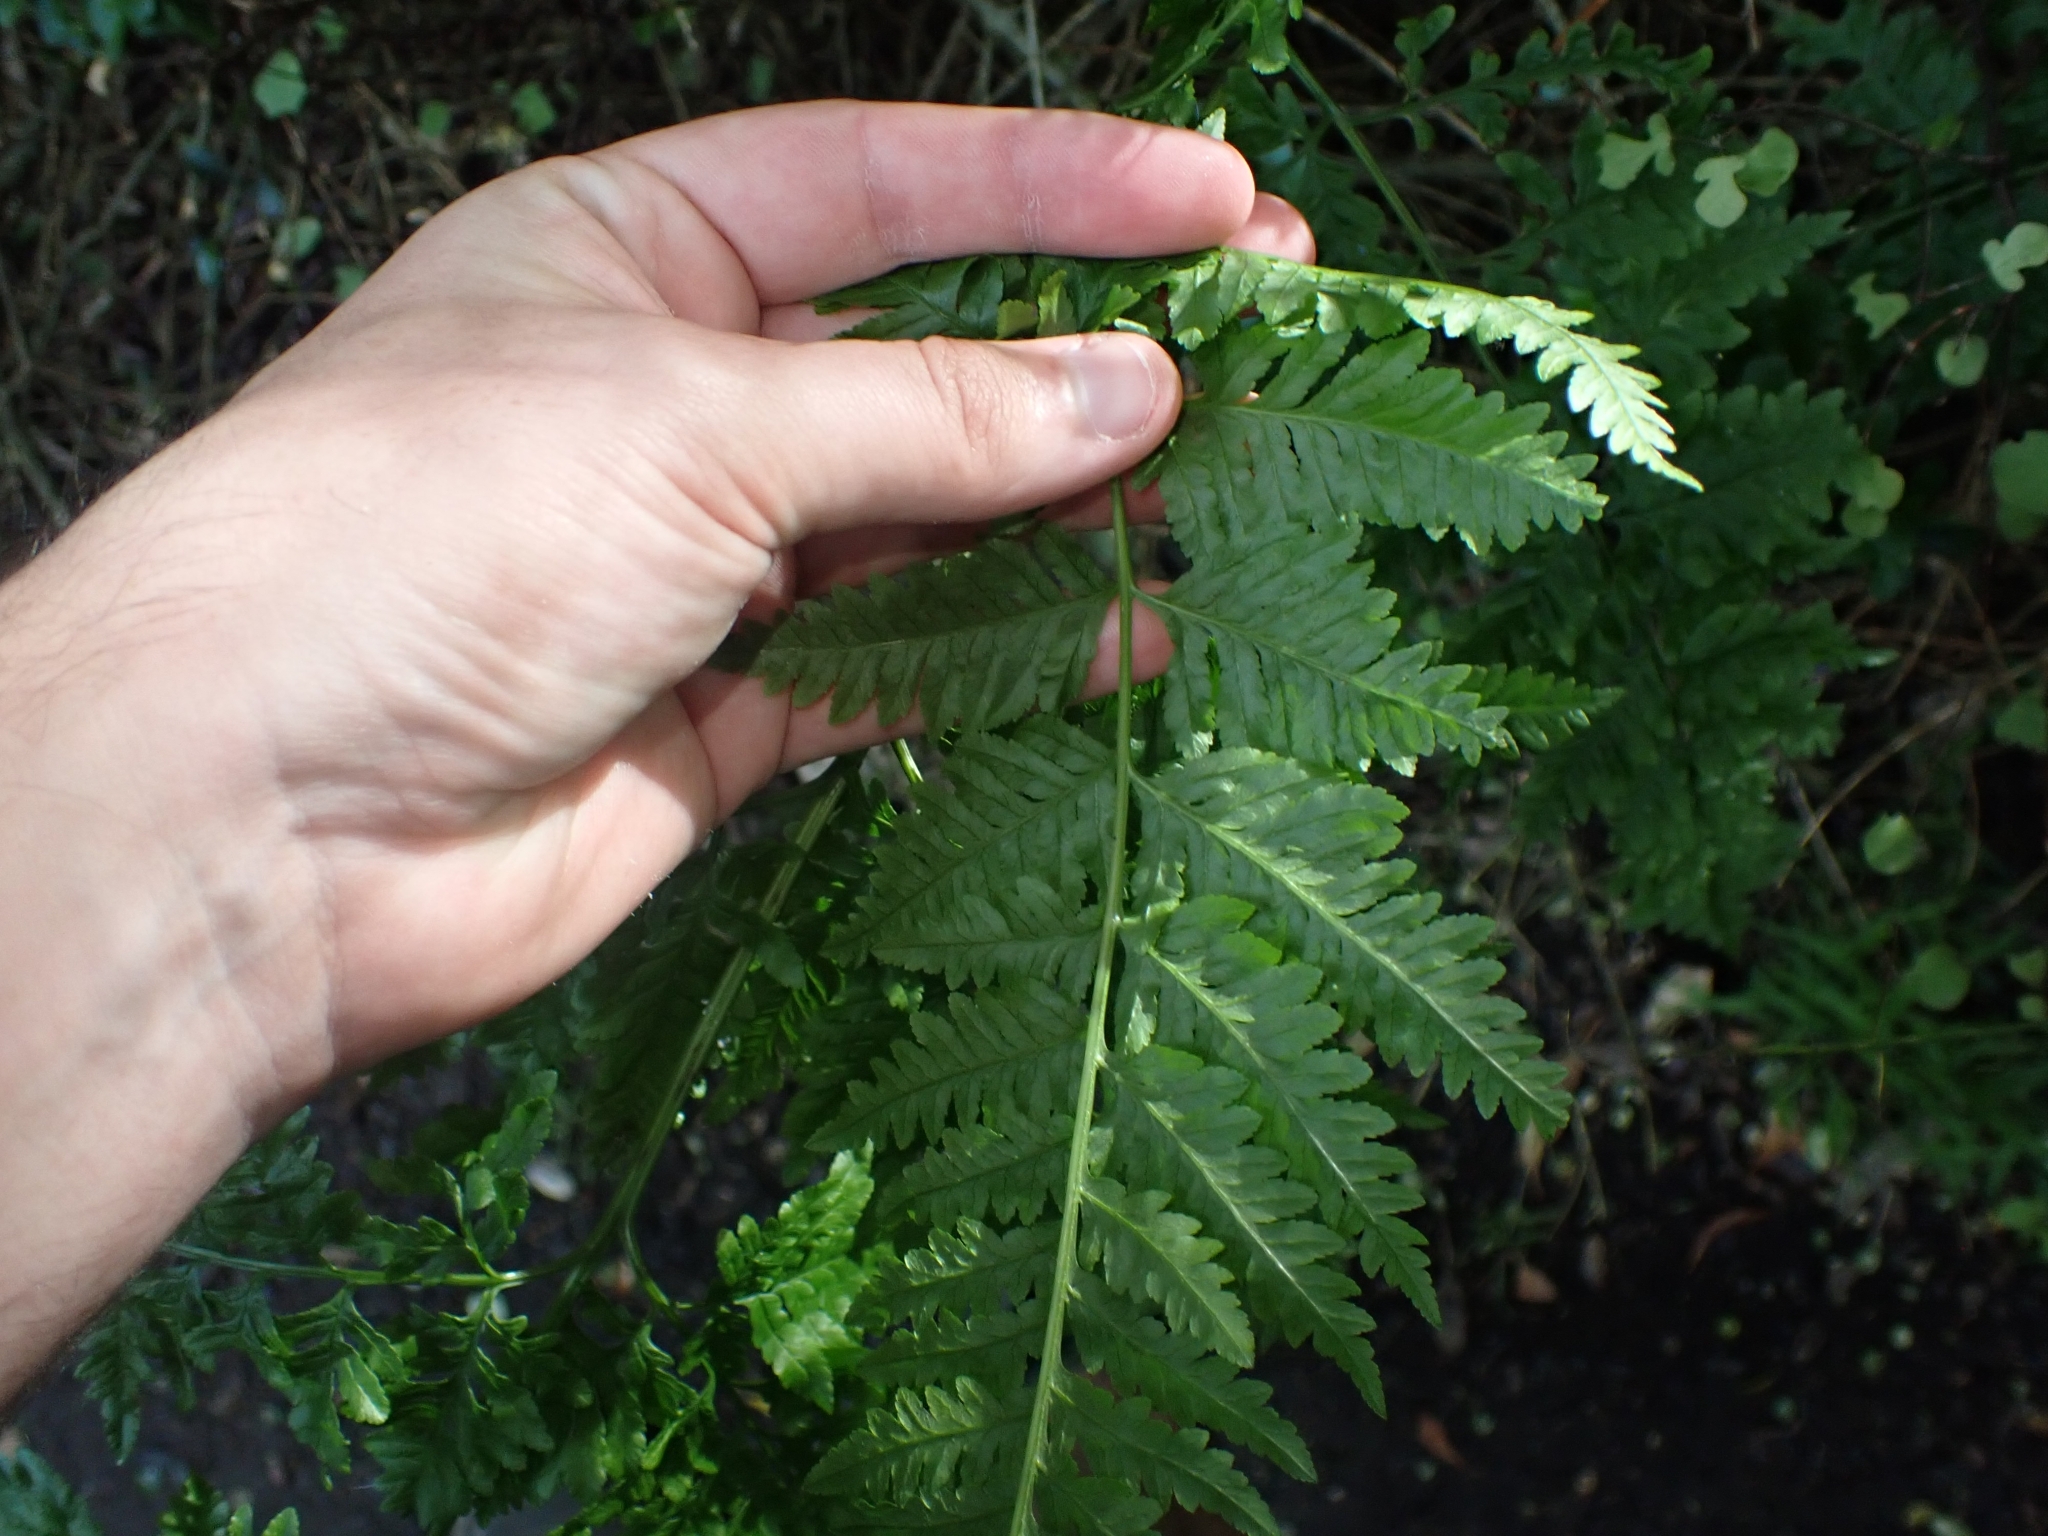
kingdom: Plantae
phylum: Tracheophyta
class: Polypodiopsida
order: Polypodiales
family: Pteridaceae
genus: Pteris
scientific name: Pteris tremula
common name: Australian brake
